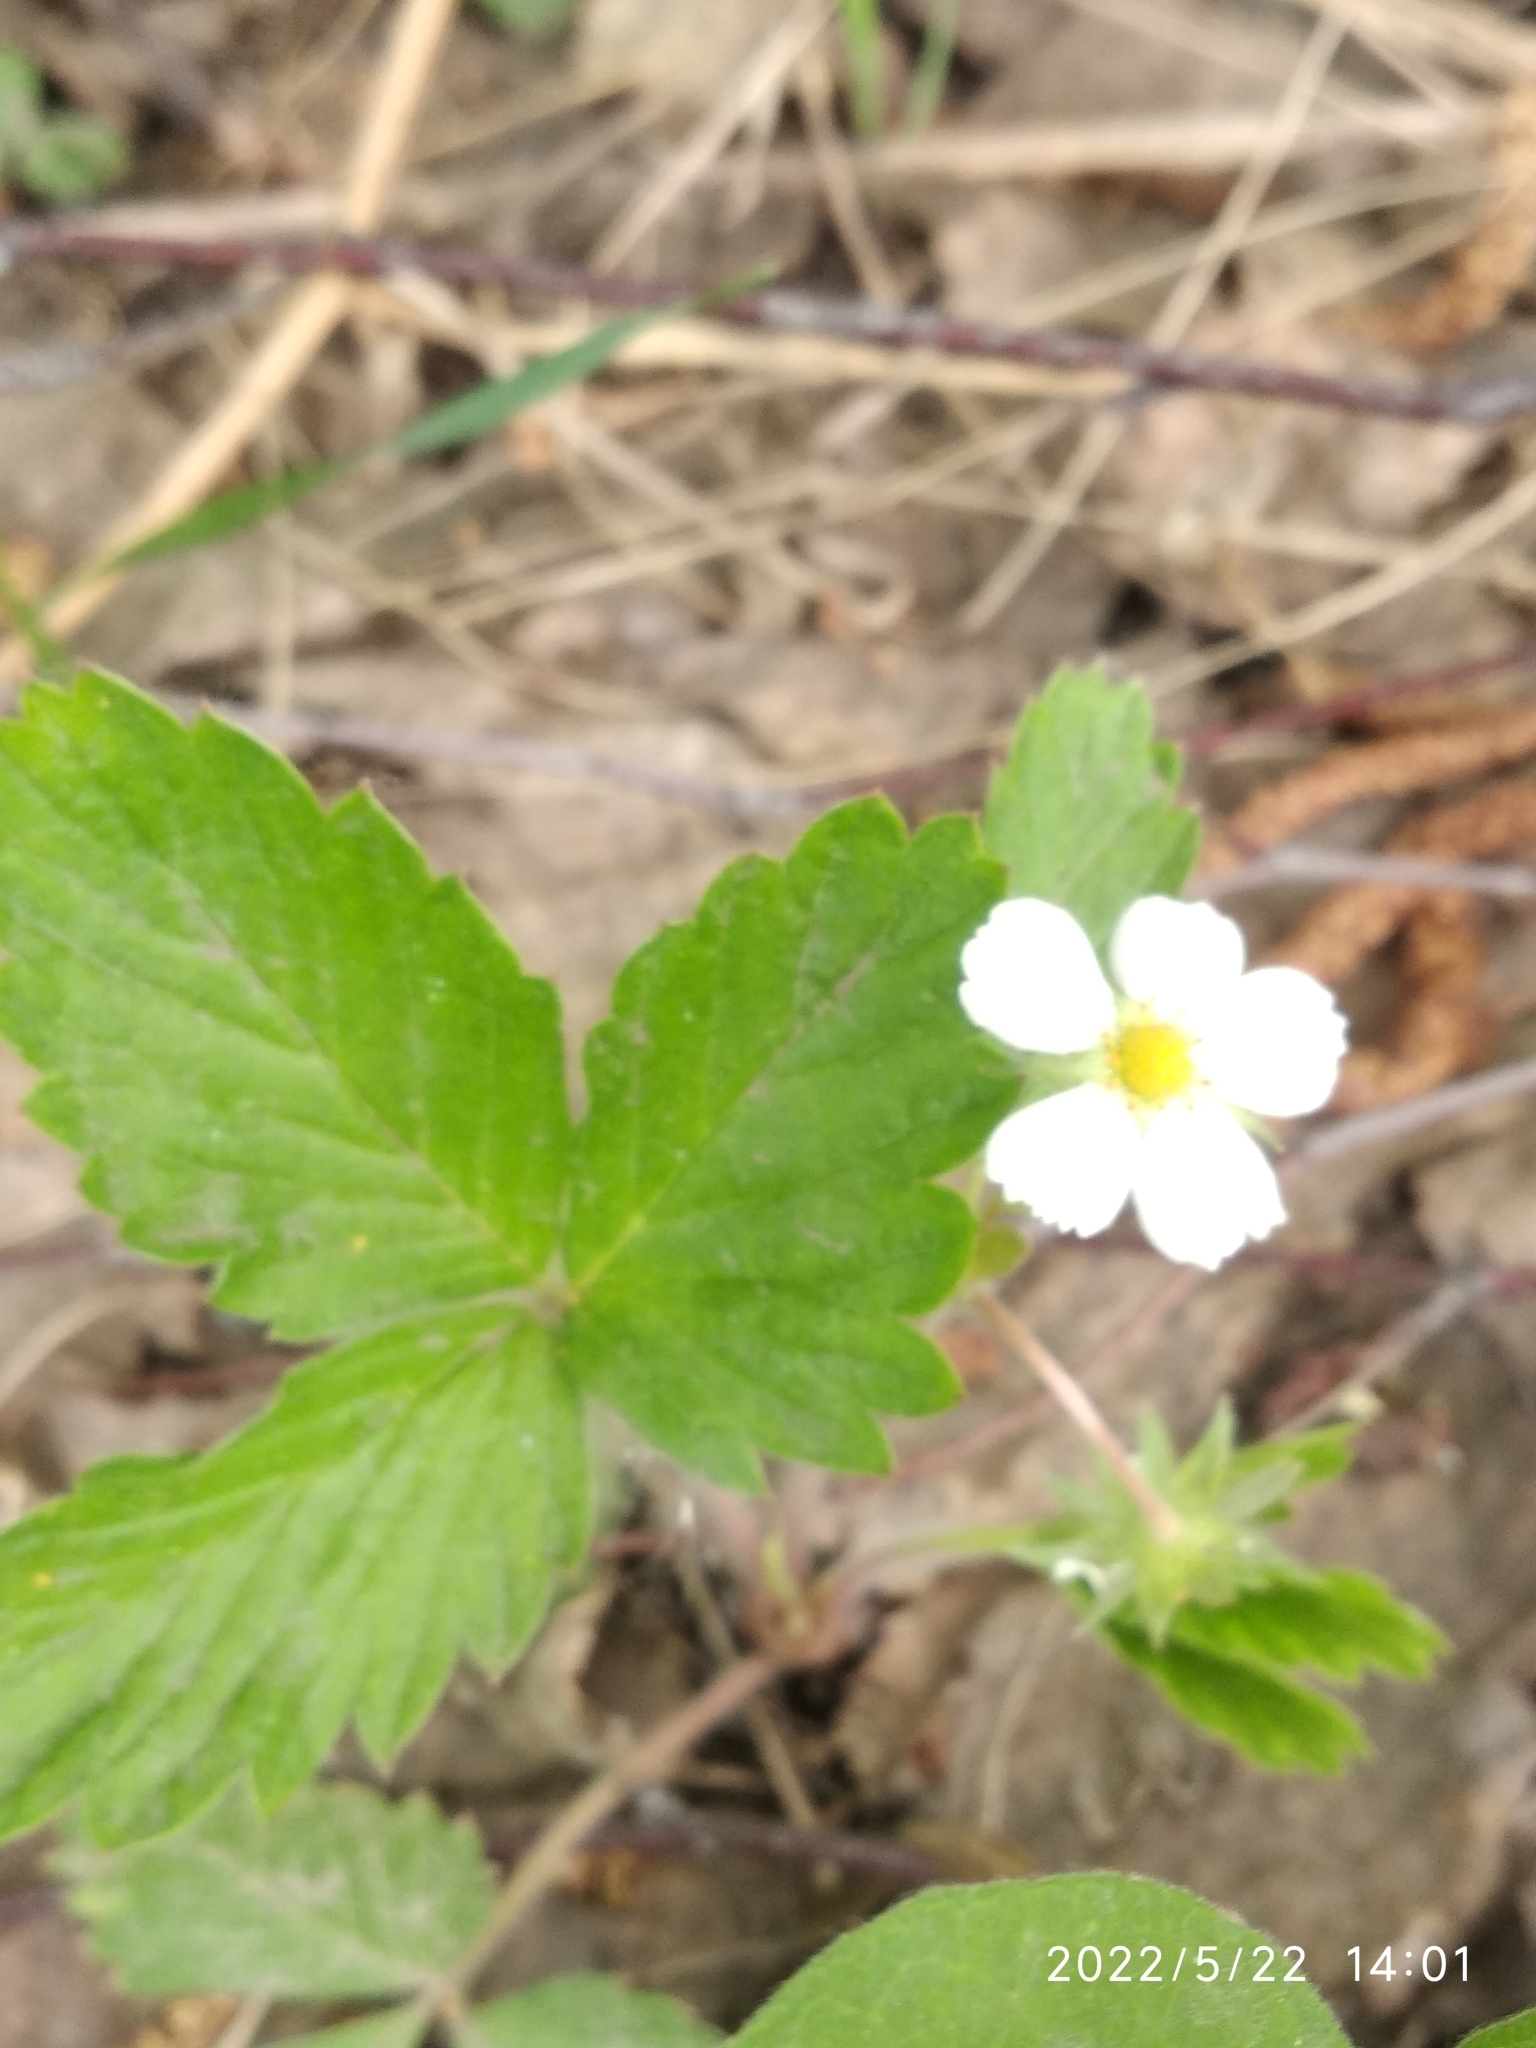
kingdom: Plantae
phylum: Tracheophyta
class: Magnoliopsida
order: Rosales
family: Rosaceae
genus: Fragaria
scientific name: Fragaria vesca
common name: Wild strawberry
